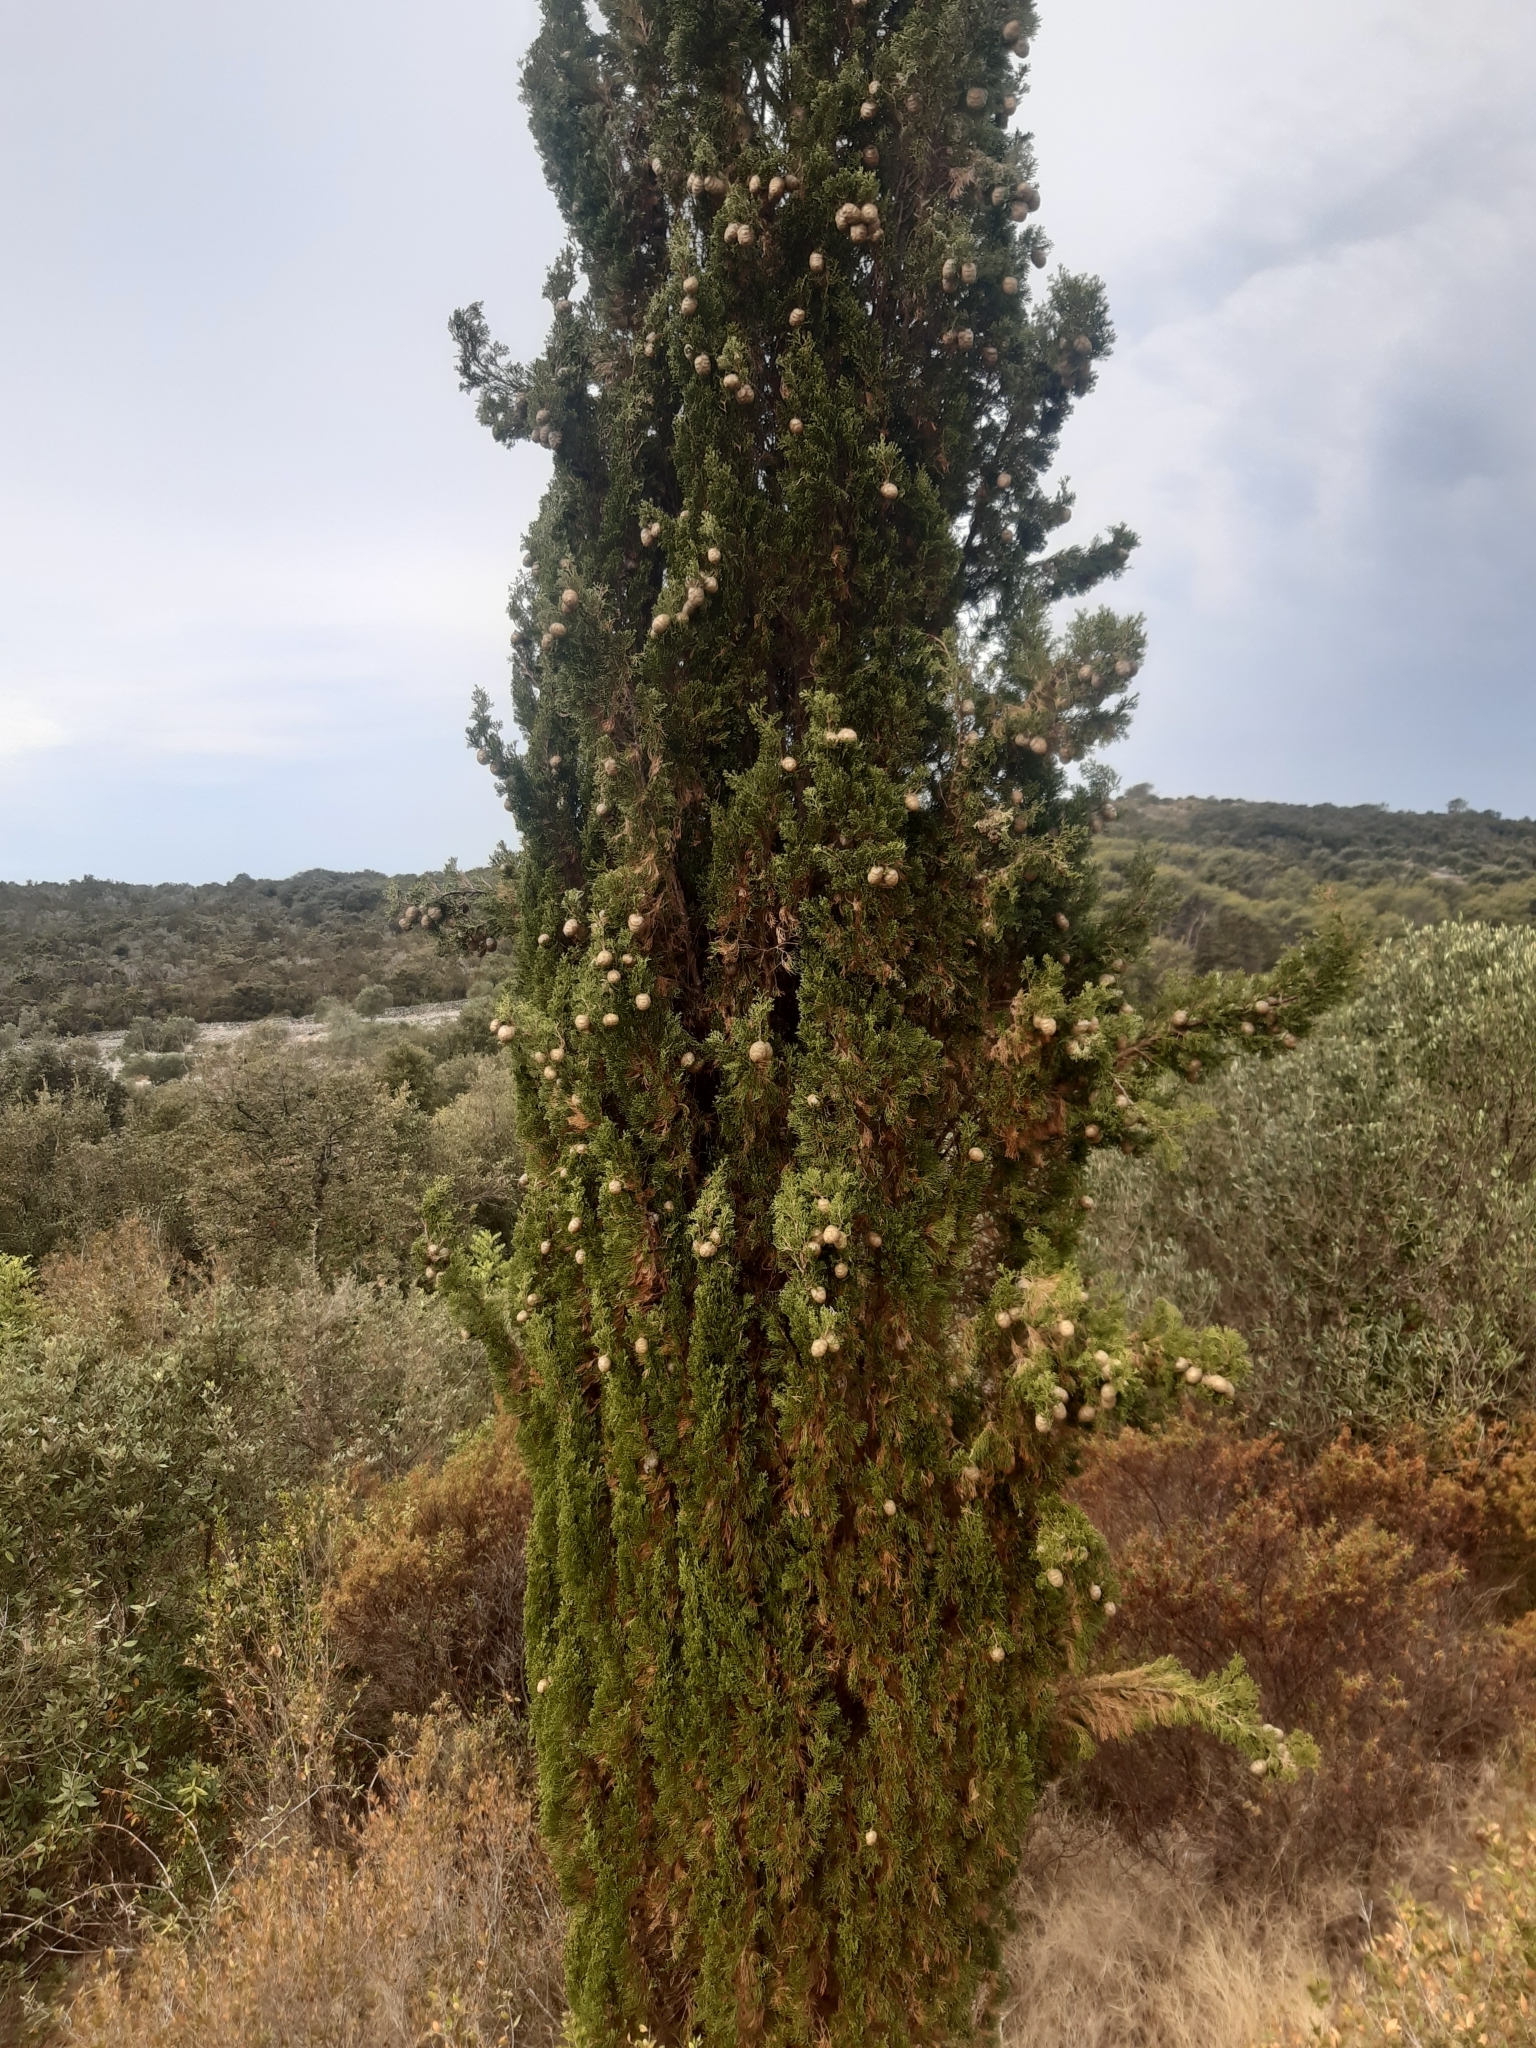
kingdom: Plantae
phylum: Tracheophyta
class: Pinopsida
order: Pinales
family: Cupressaceae
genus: Cupressus
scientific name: Cupressus sempervirens
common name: Italian cypress
